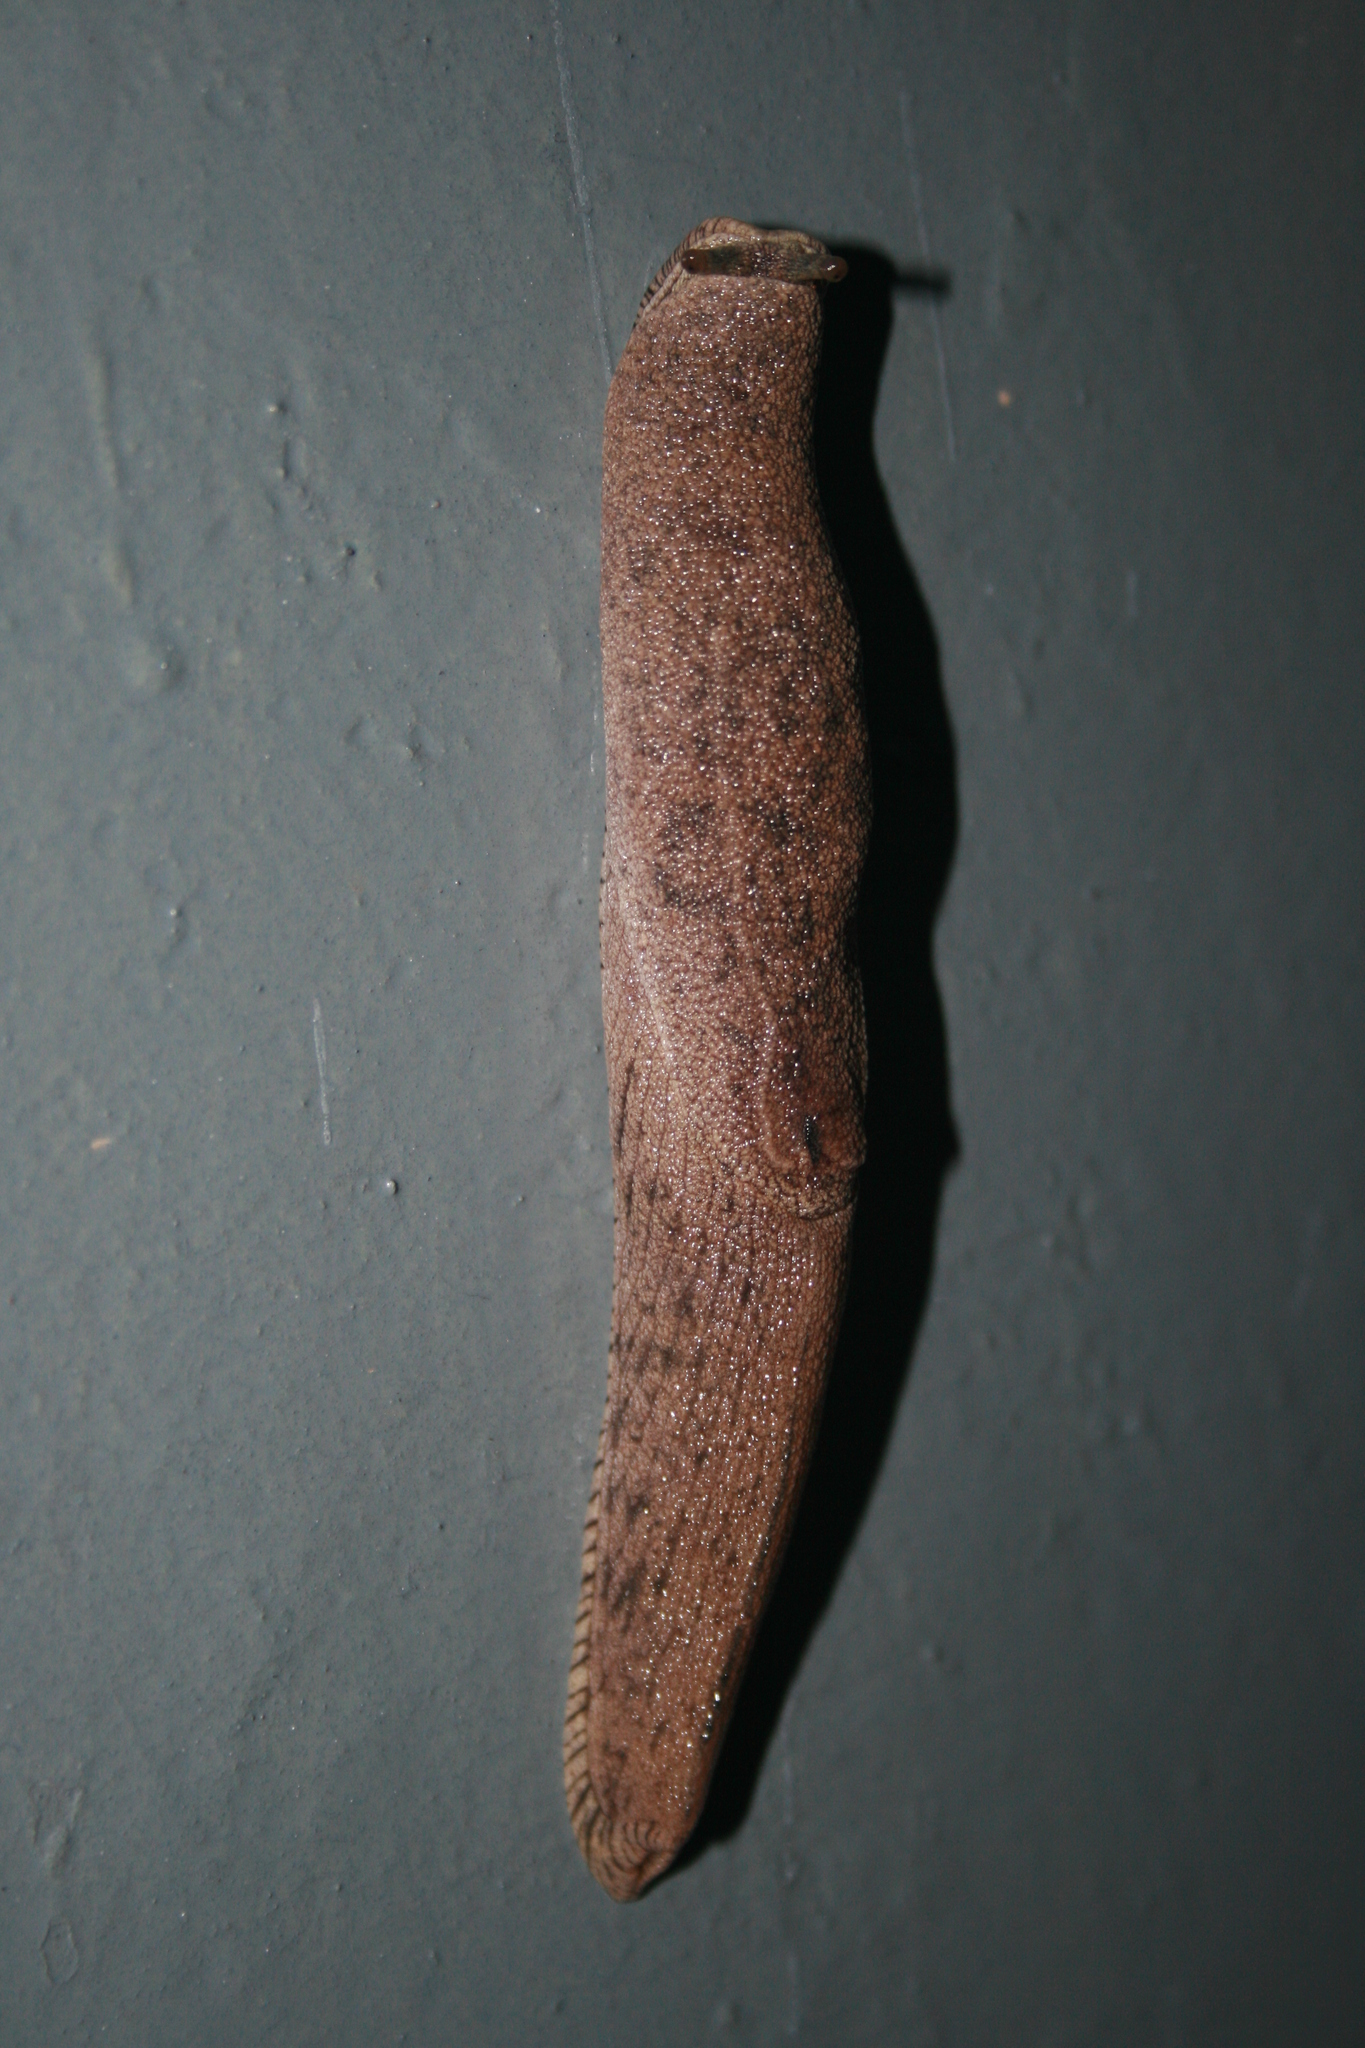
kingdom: Animalia
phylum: Mollusca
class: Gastropoda
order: Stylommatophora
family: Ariophantidae
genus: Mariaella
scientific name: Mariaella dussumieri
